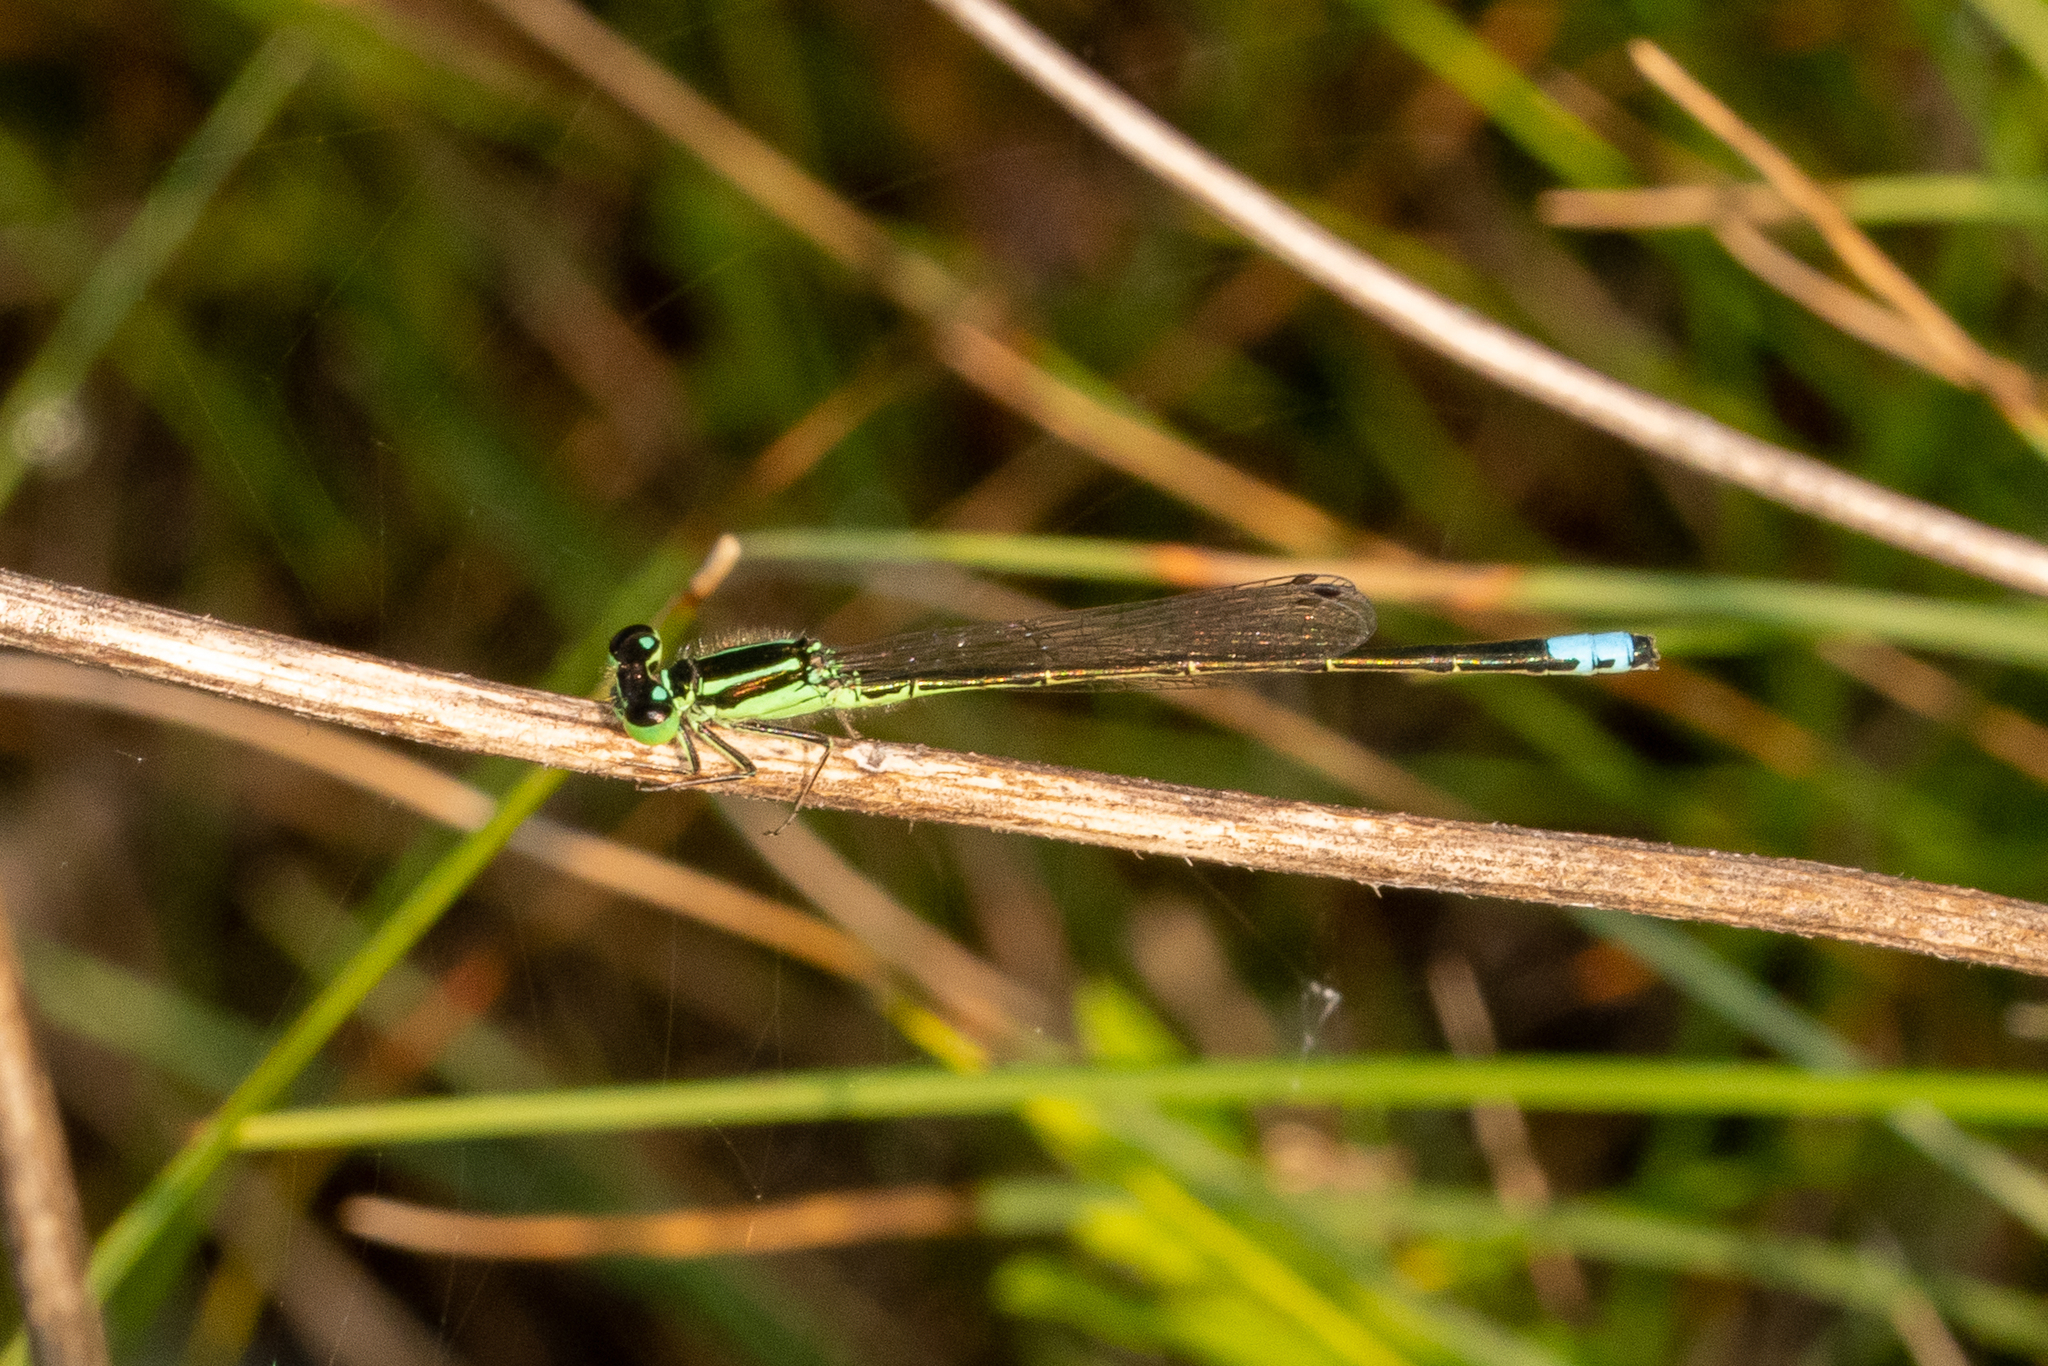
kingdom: Animalia
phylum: Arthropoda
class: Insecta
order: Odonata
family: Coenagrionidae
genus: Ischnura
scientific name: Ischnura verticalis
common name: Eastern forktail
